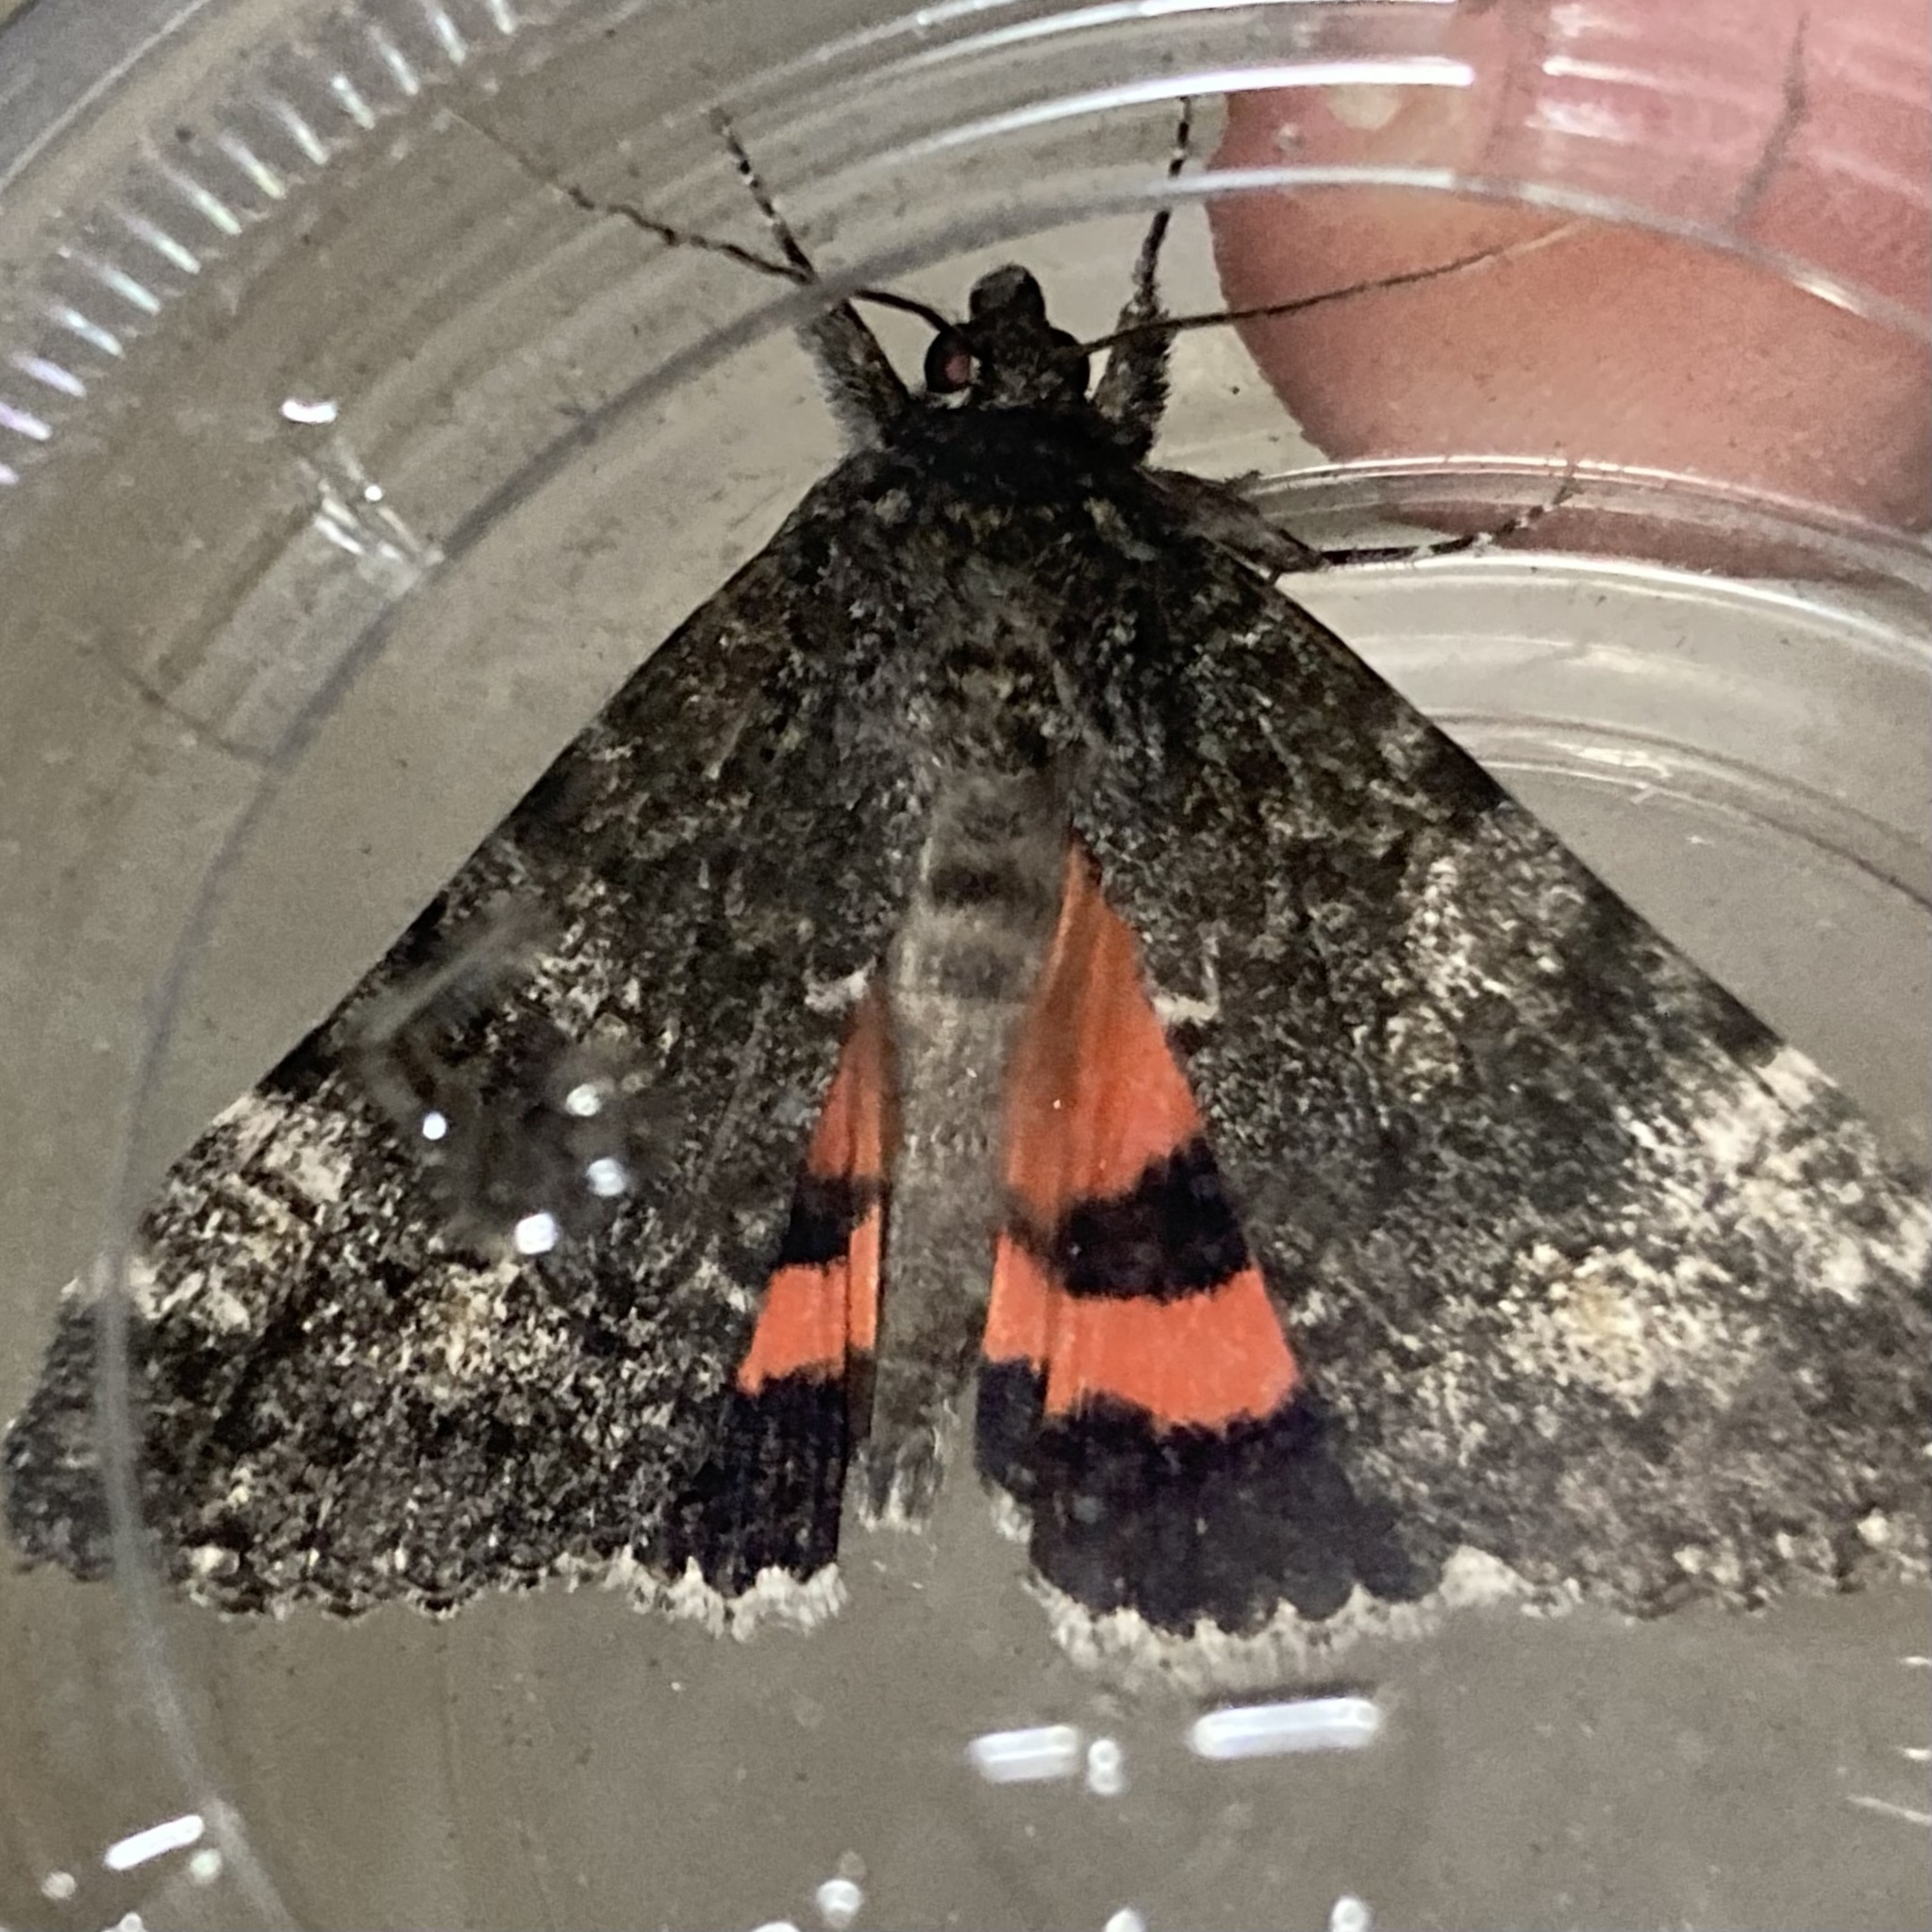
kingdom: Animalia
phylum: Arthropoda
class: Insecta
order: Lepidoptera
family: Erebidae
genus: Catocala
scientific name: Catocala briseis
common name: Briseis underwing
